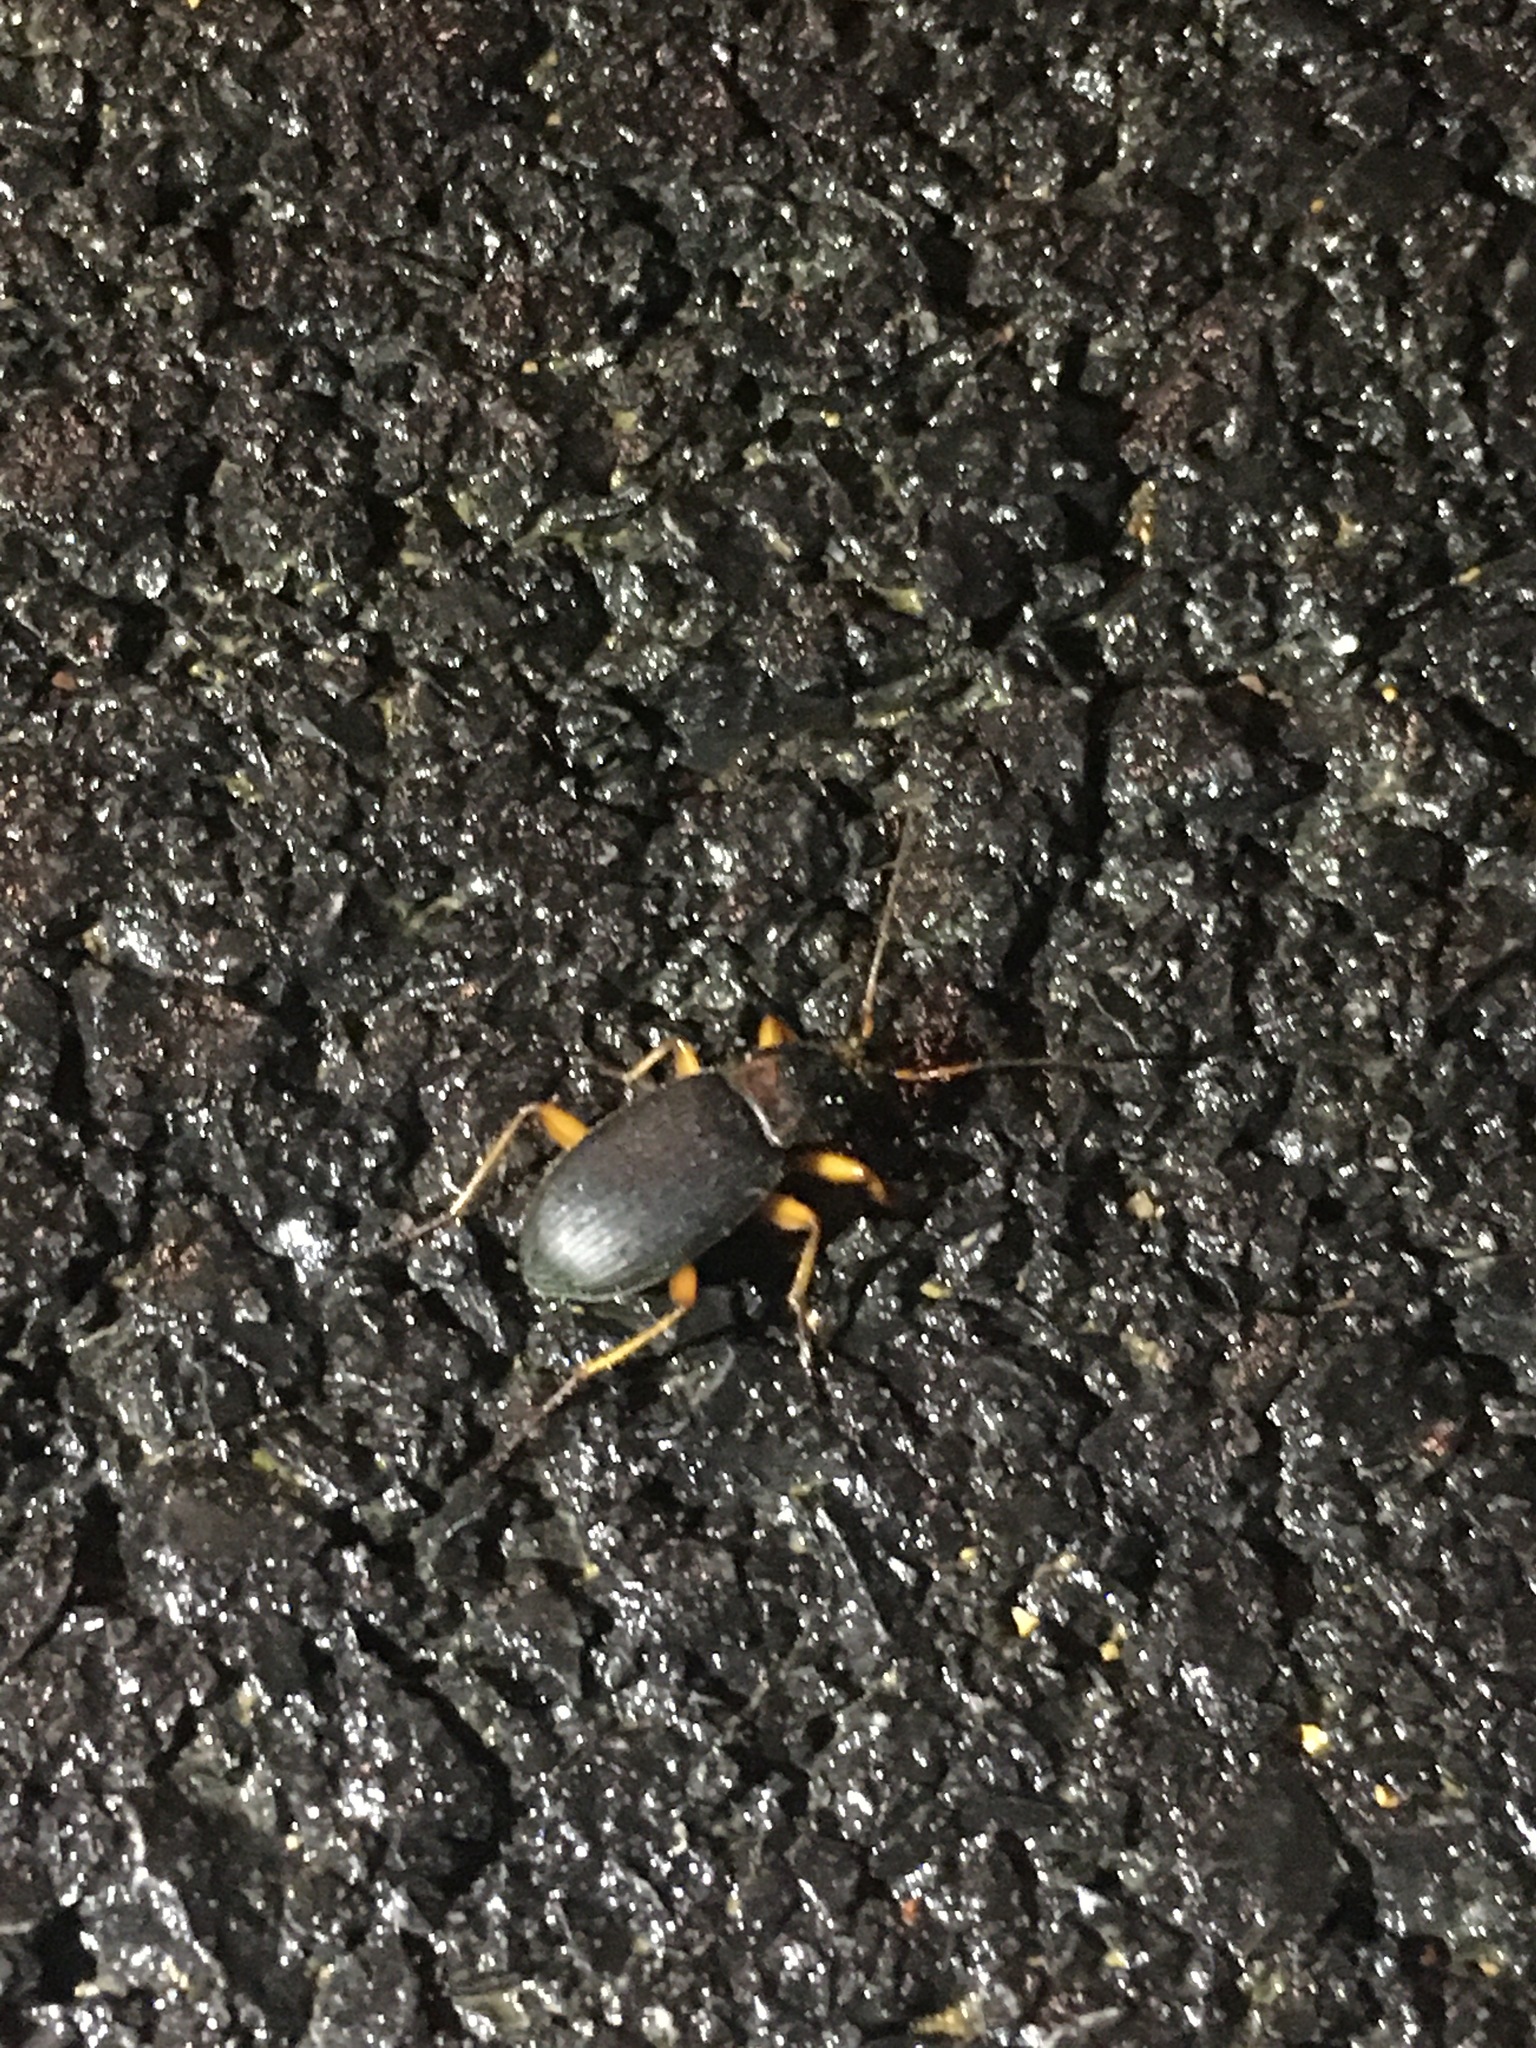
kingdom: Animalia
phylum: Arthropoda
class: Insecta
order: Coleoptera
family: Carabidae
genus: Chlaenius
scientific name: Chlaenius aestivus
